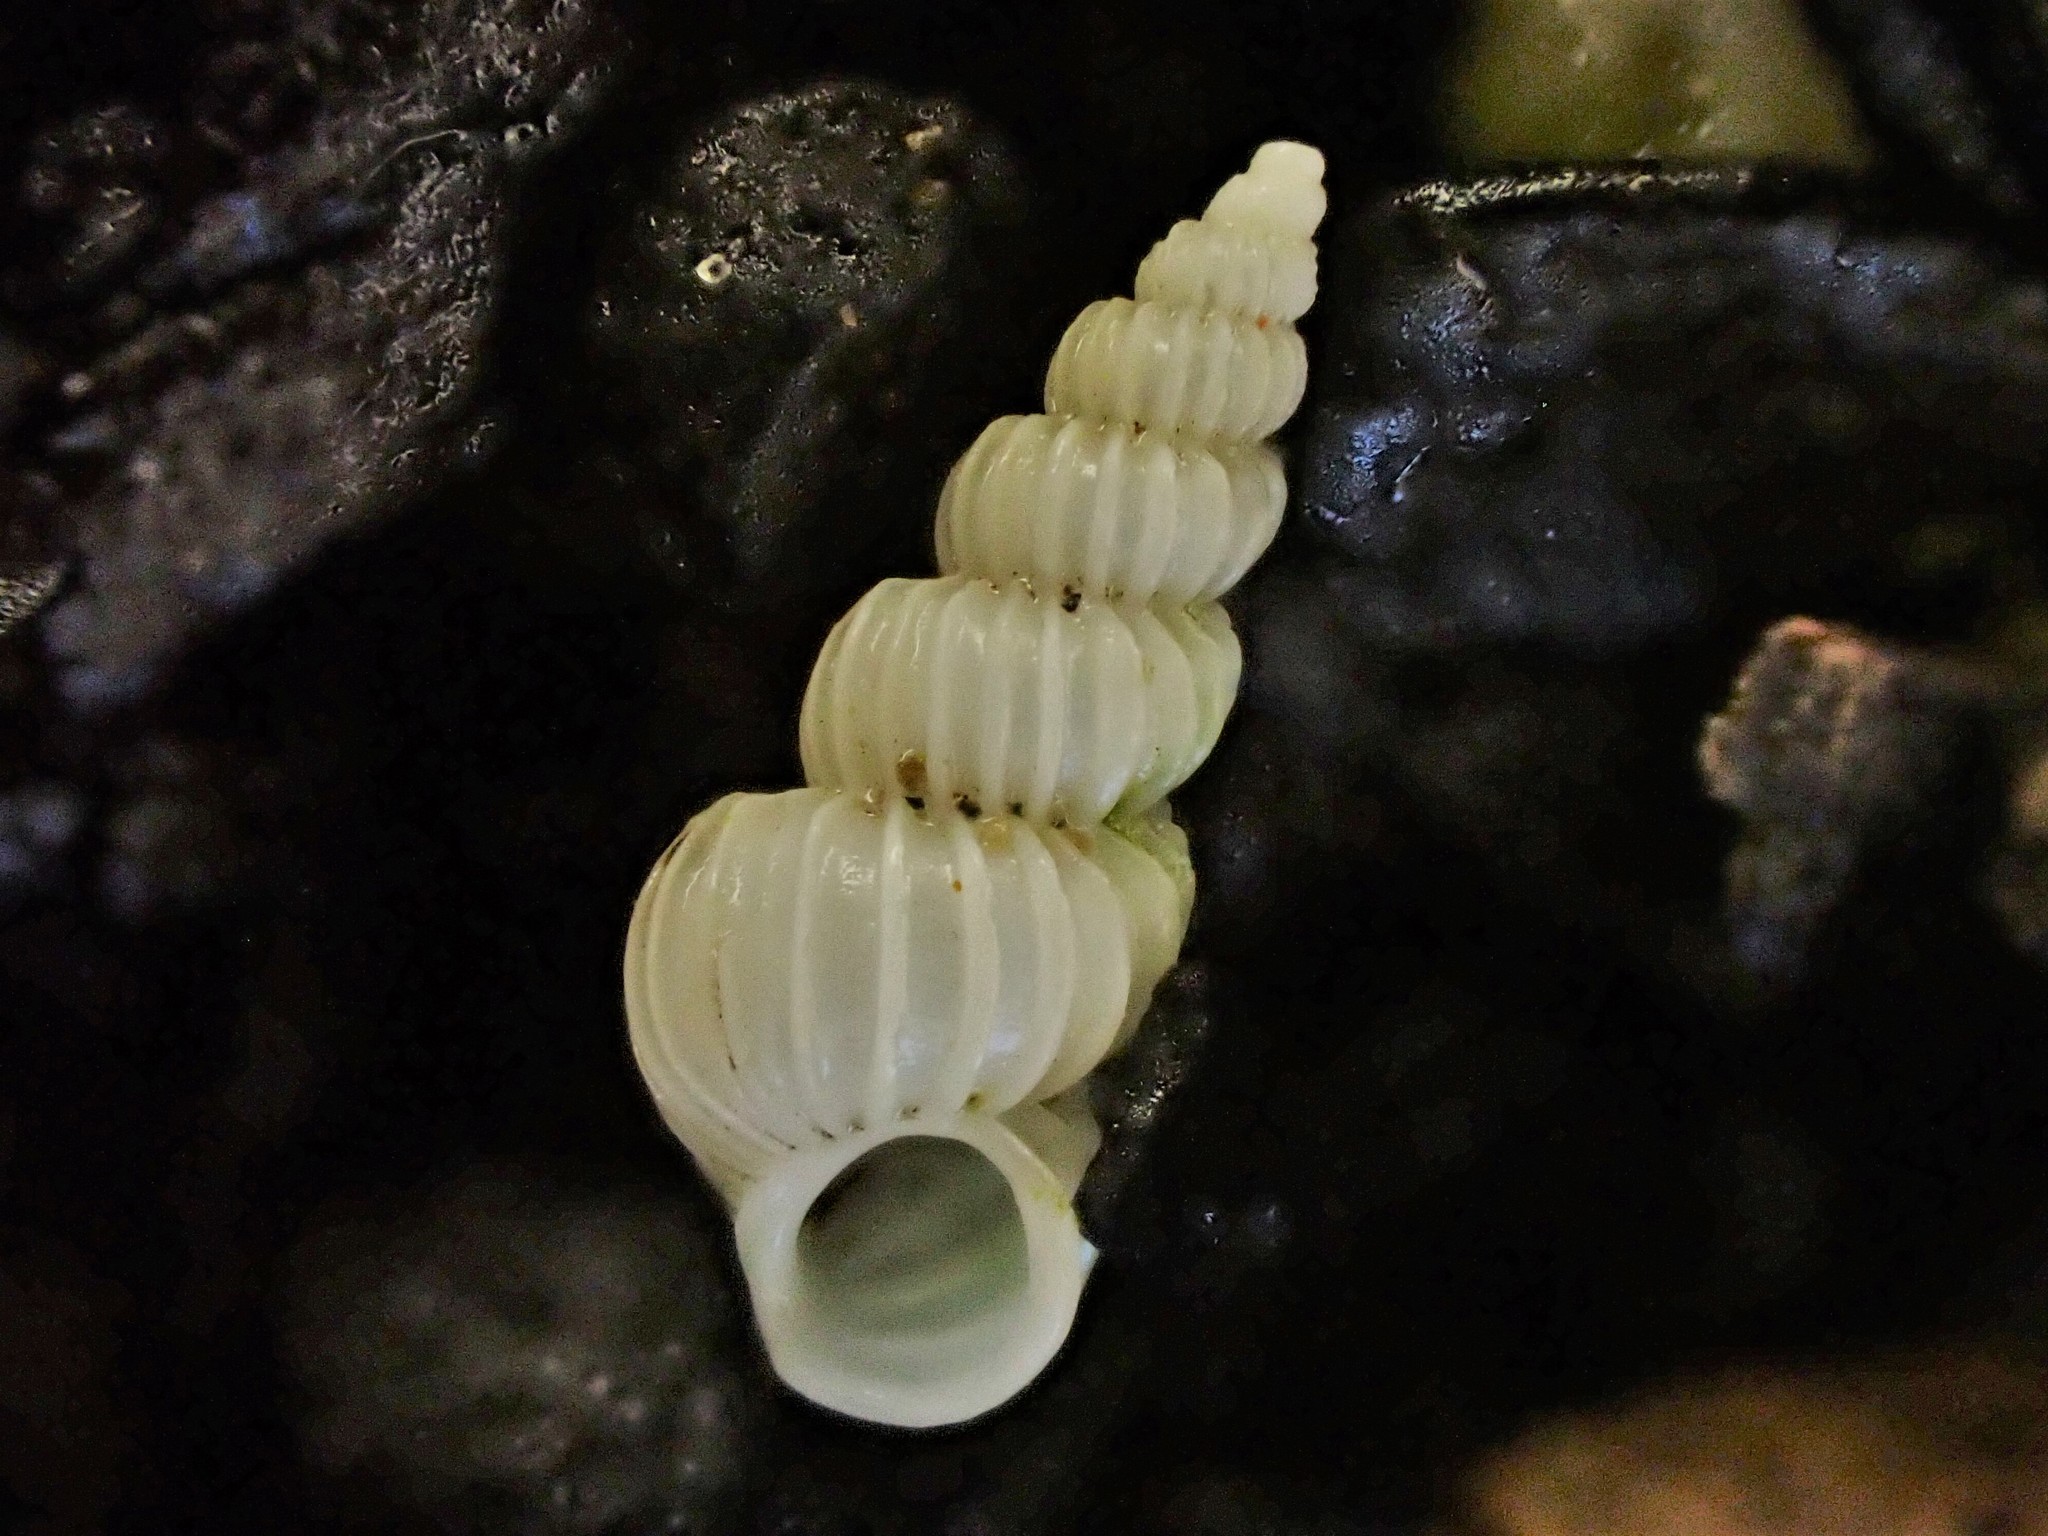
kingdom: Animalia
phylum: Mollusca
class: Gastropoda
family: Epitoniidae
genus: Epitonium
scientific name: Epitonium jukesianum
